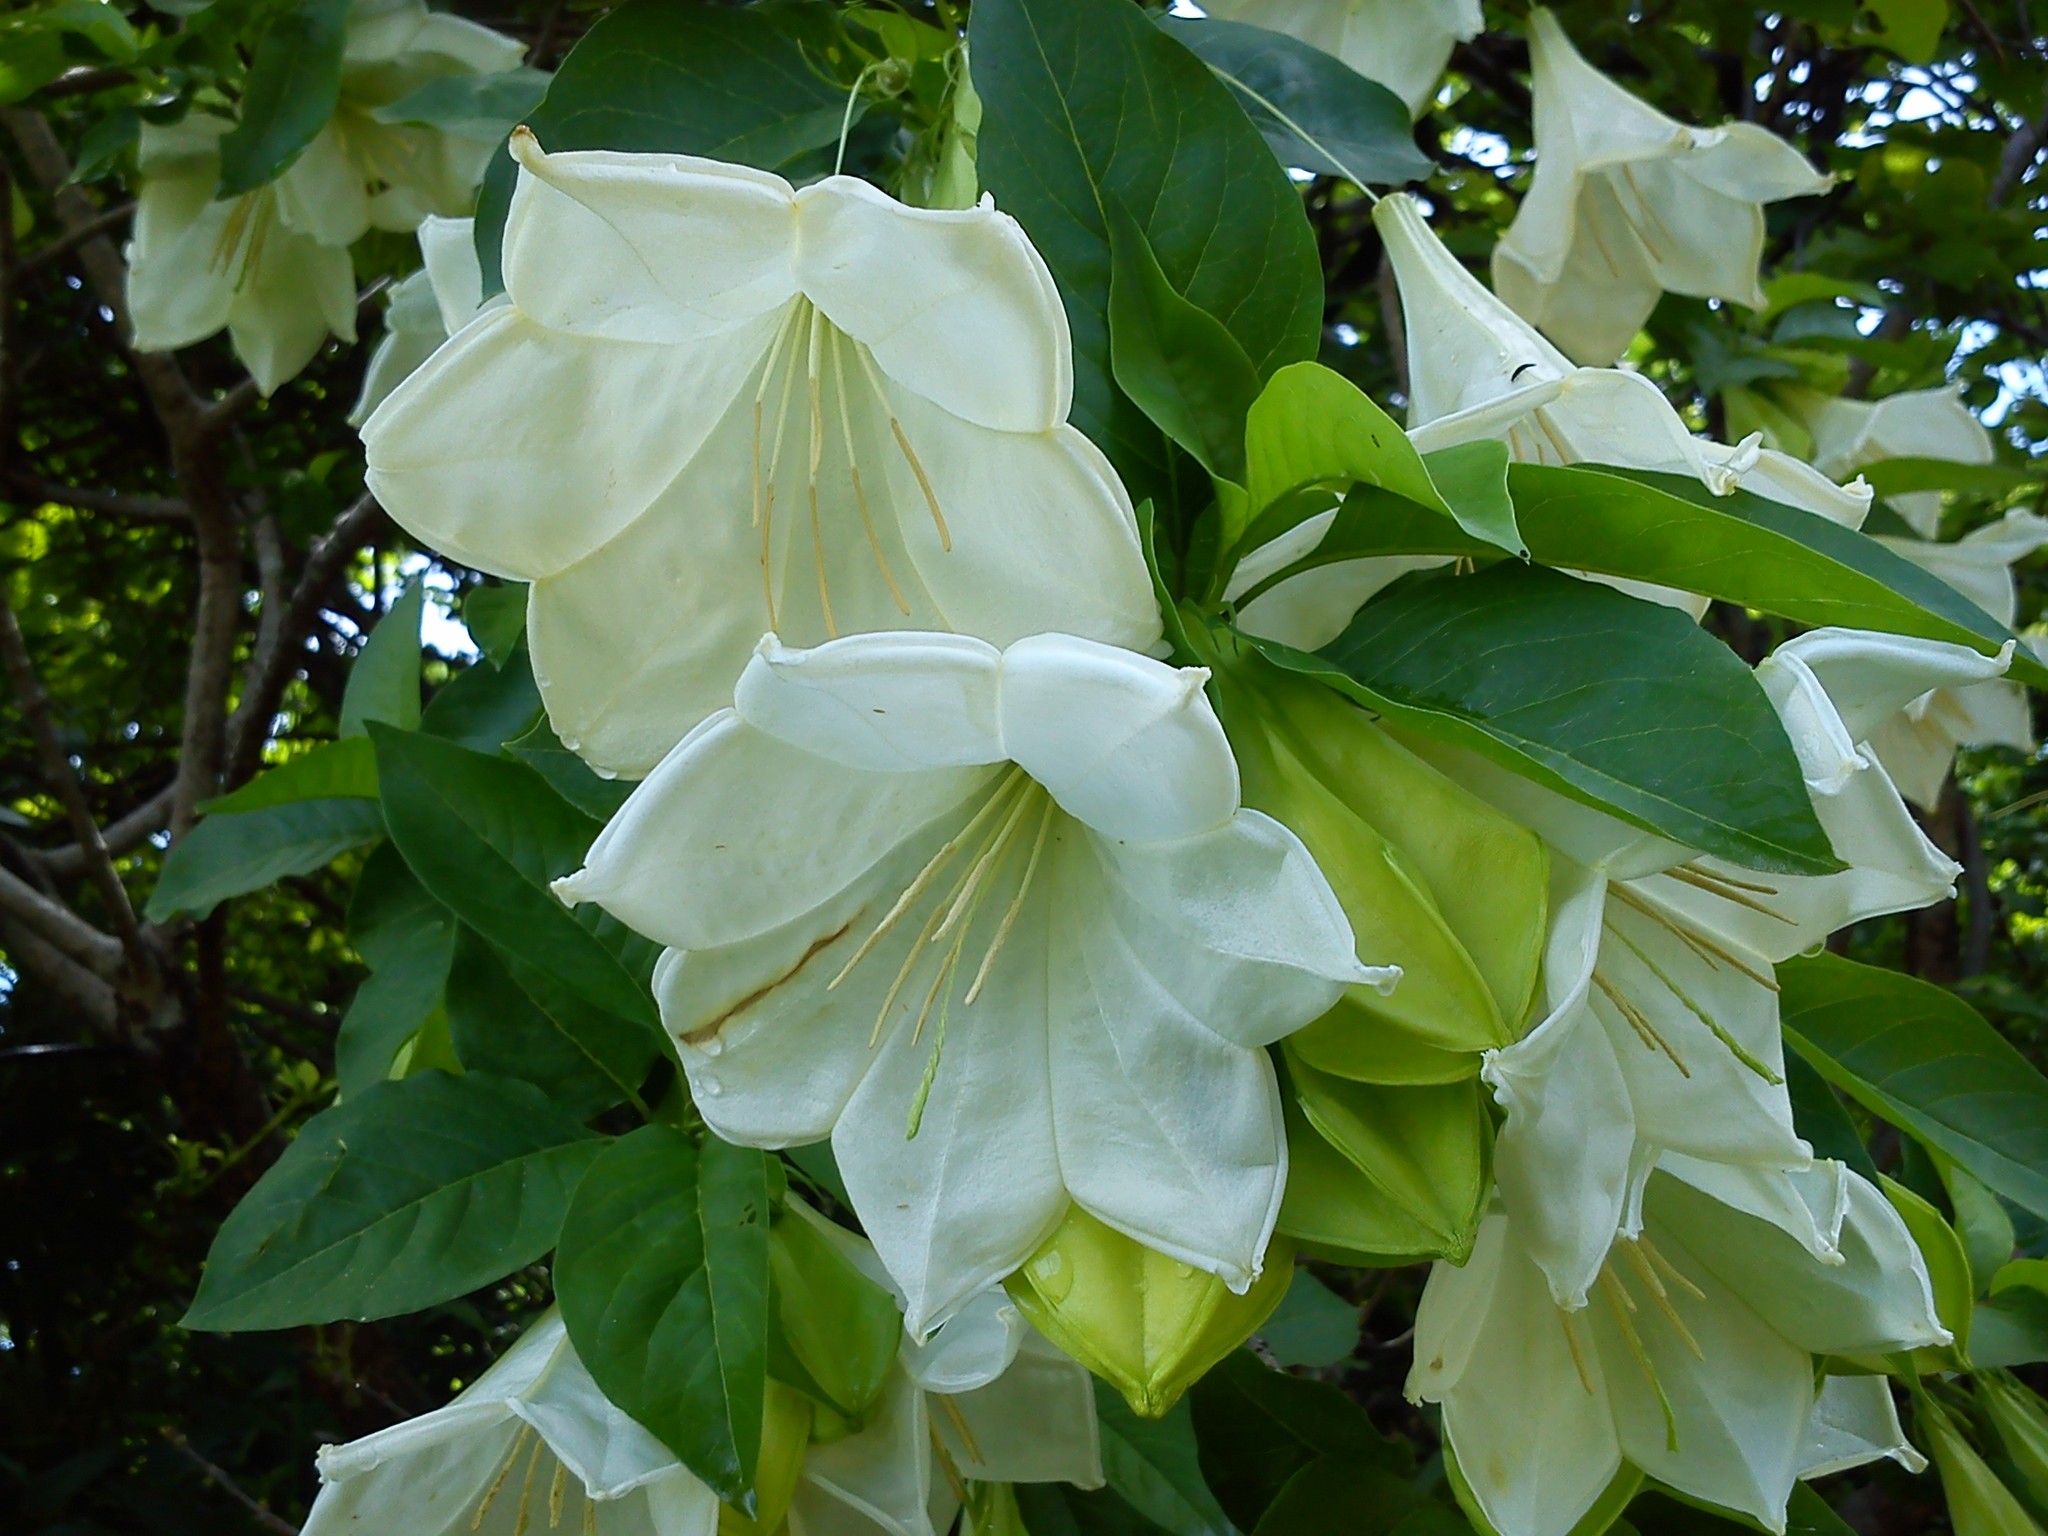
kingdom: Plantae
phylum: Tracheophyta
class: Magnoliopsida
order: Gentianales
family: Rubiaceae
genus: Hintonia
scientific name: Hintonia latiflora
